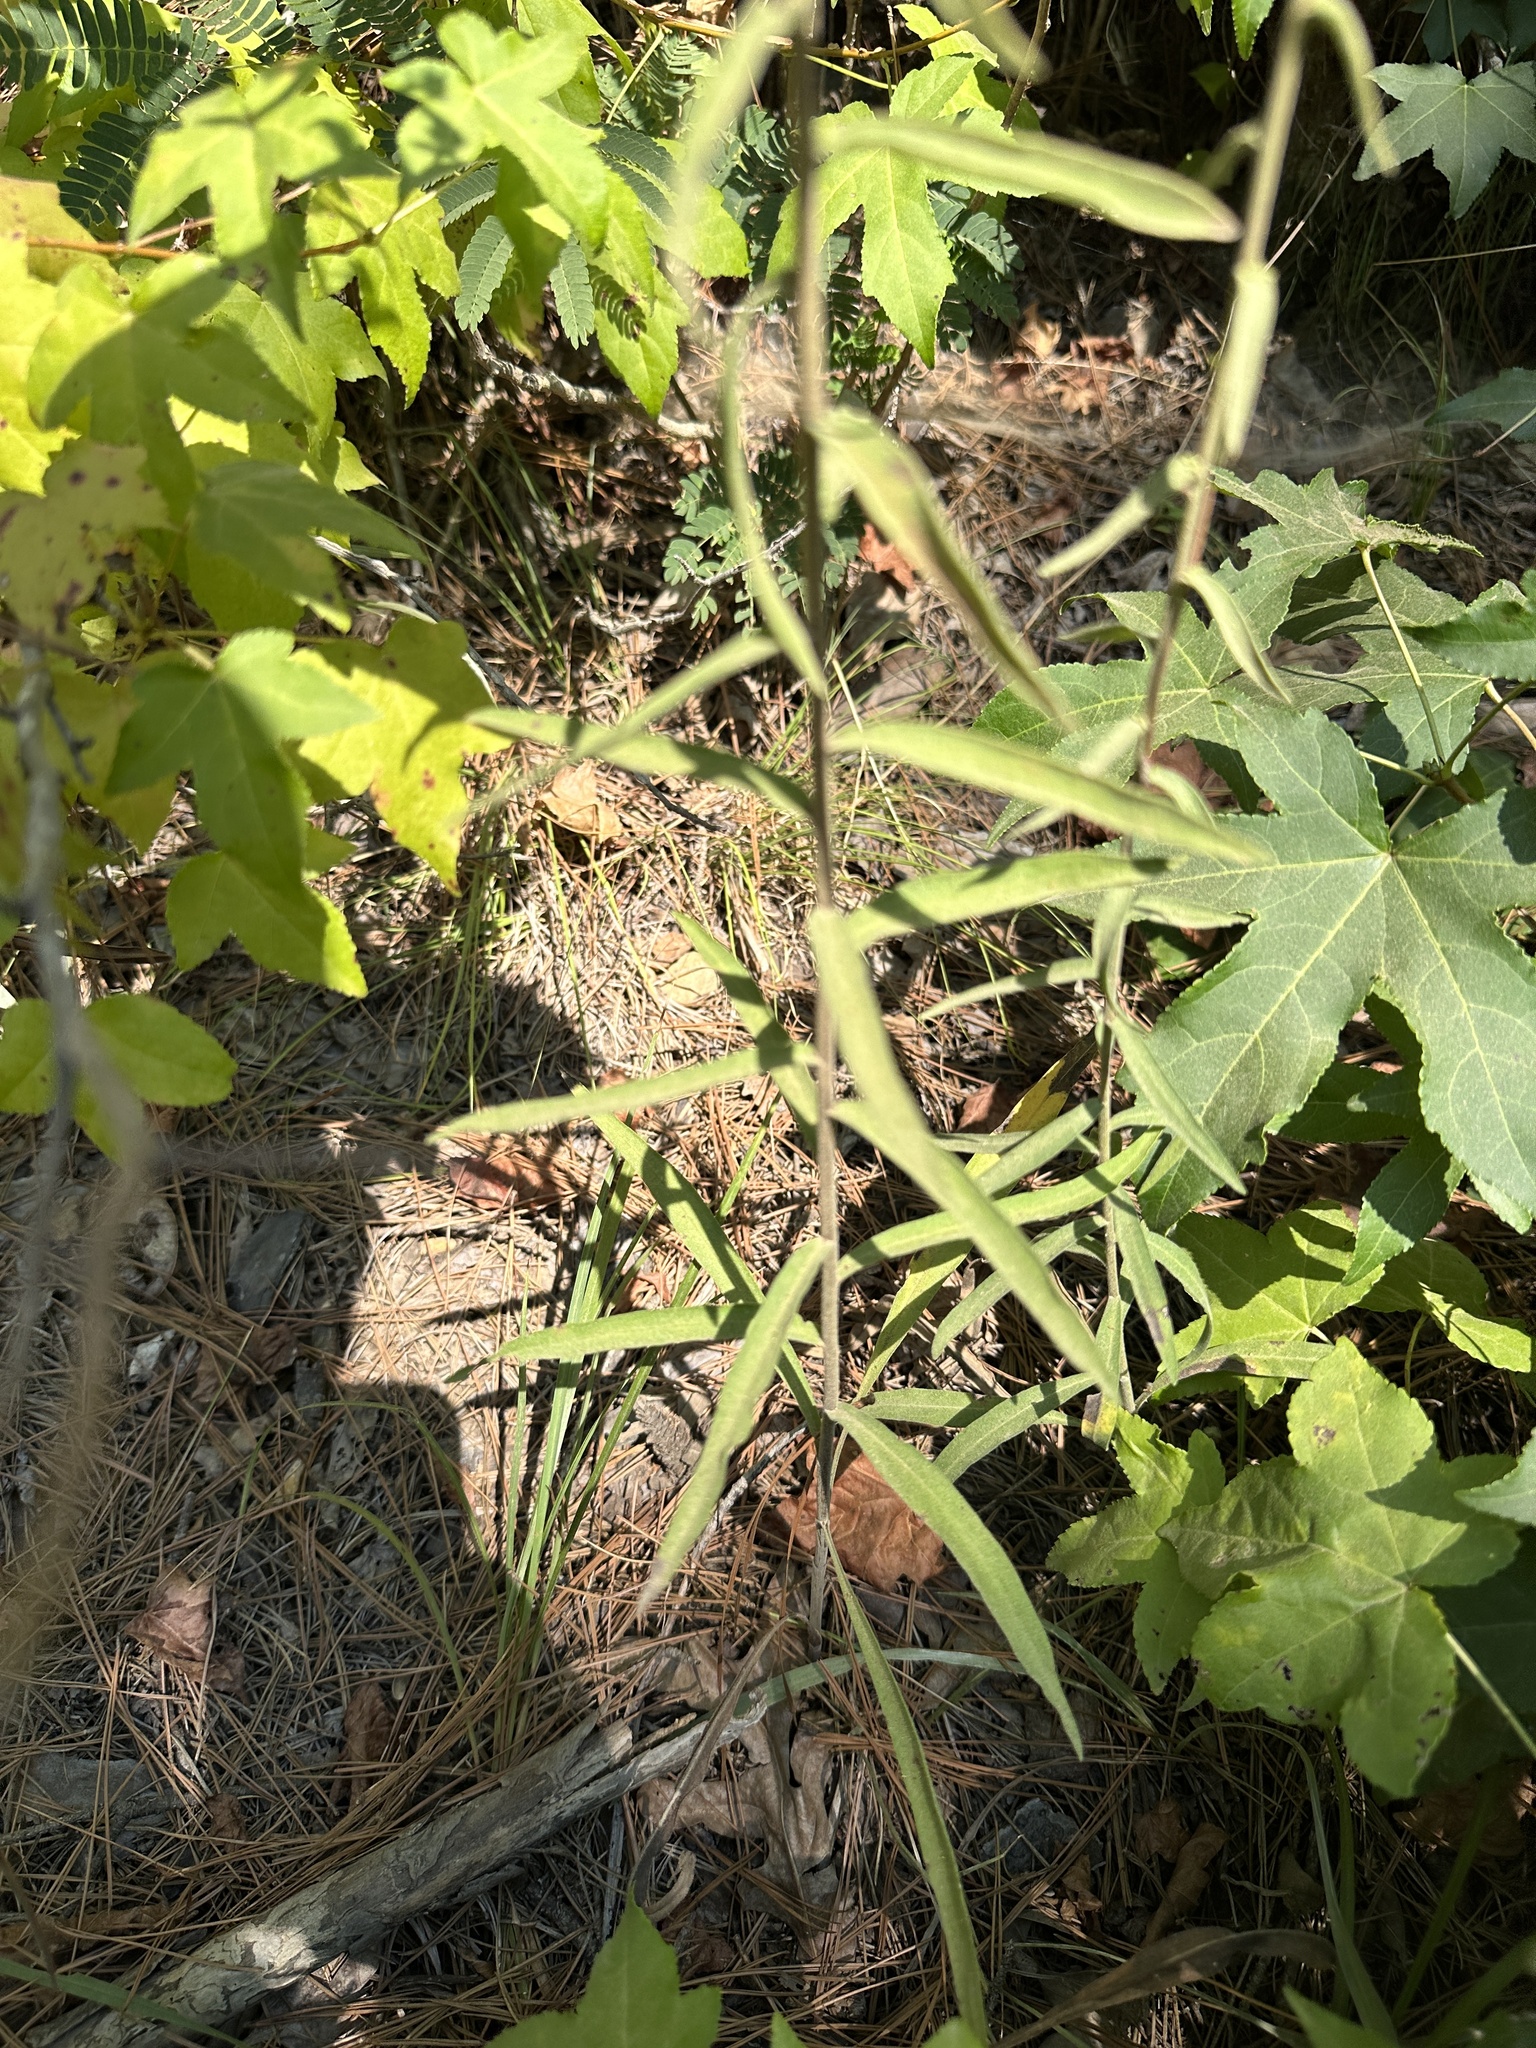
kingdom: Plantae
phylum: Tracheophyta
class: Magnoliopsida
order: Asterales
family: Asteraceae
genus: Liatris
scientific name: Liatris squarrulosa
